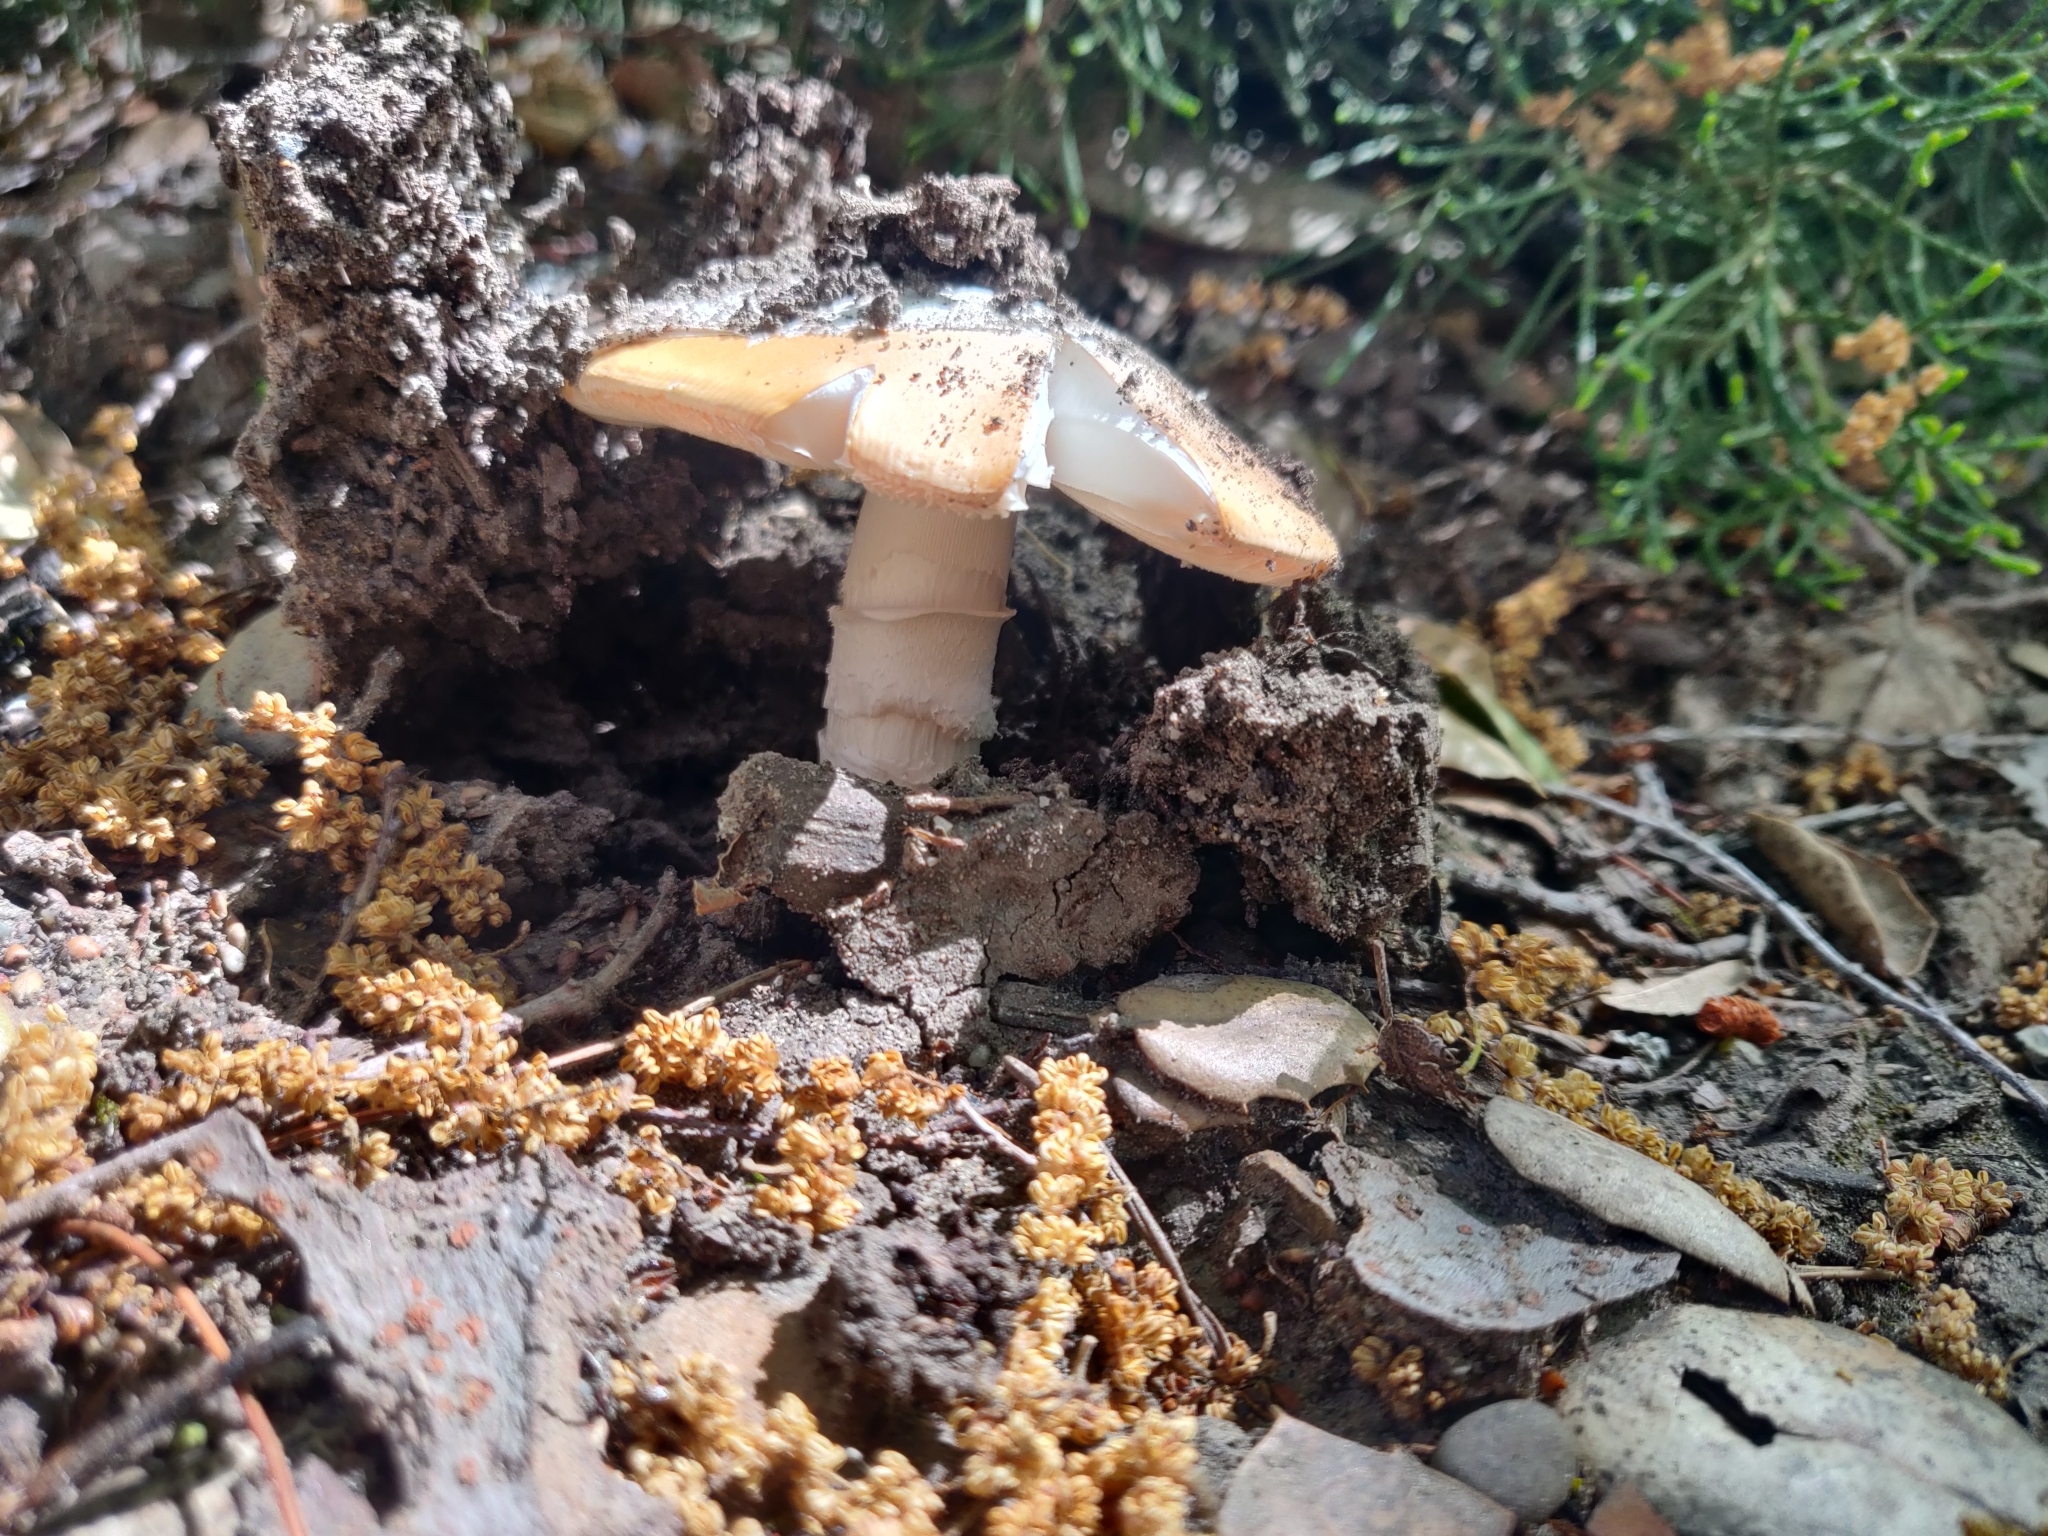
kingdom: Fungi
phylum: Basidiomycota
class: Agaricomycetes
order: Agaricales
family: Amanitaceae
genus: Amanita
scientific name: Amanita velosa
